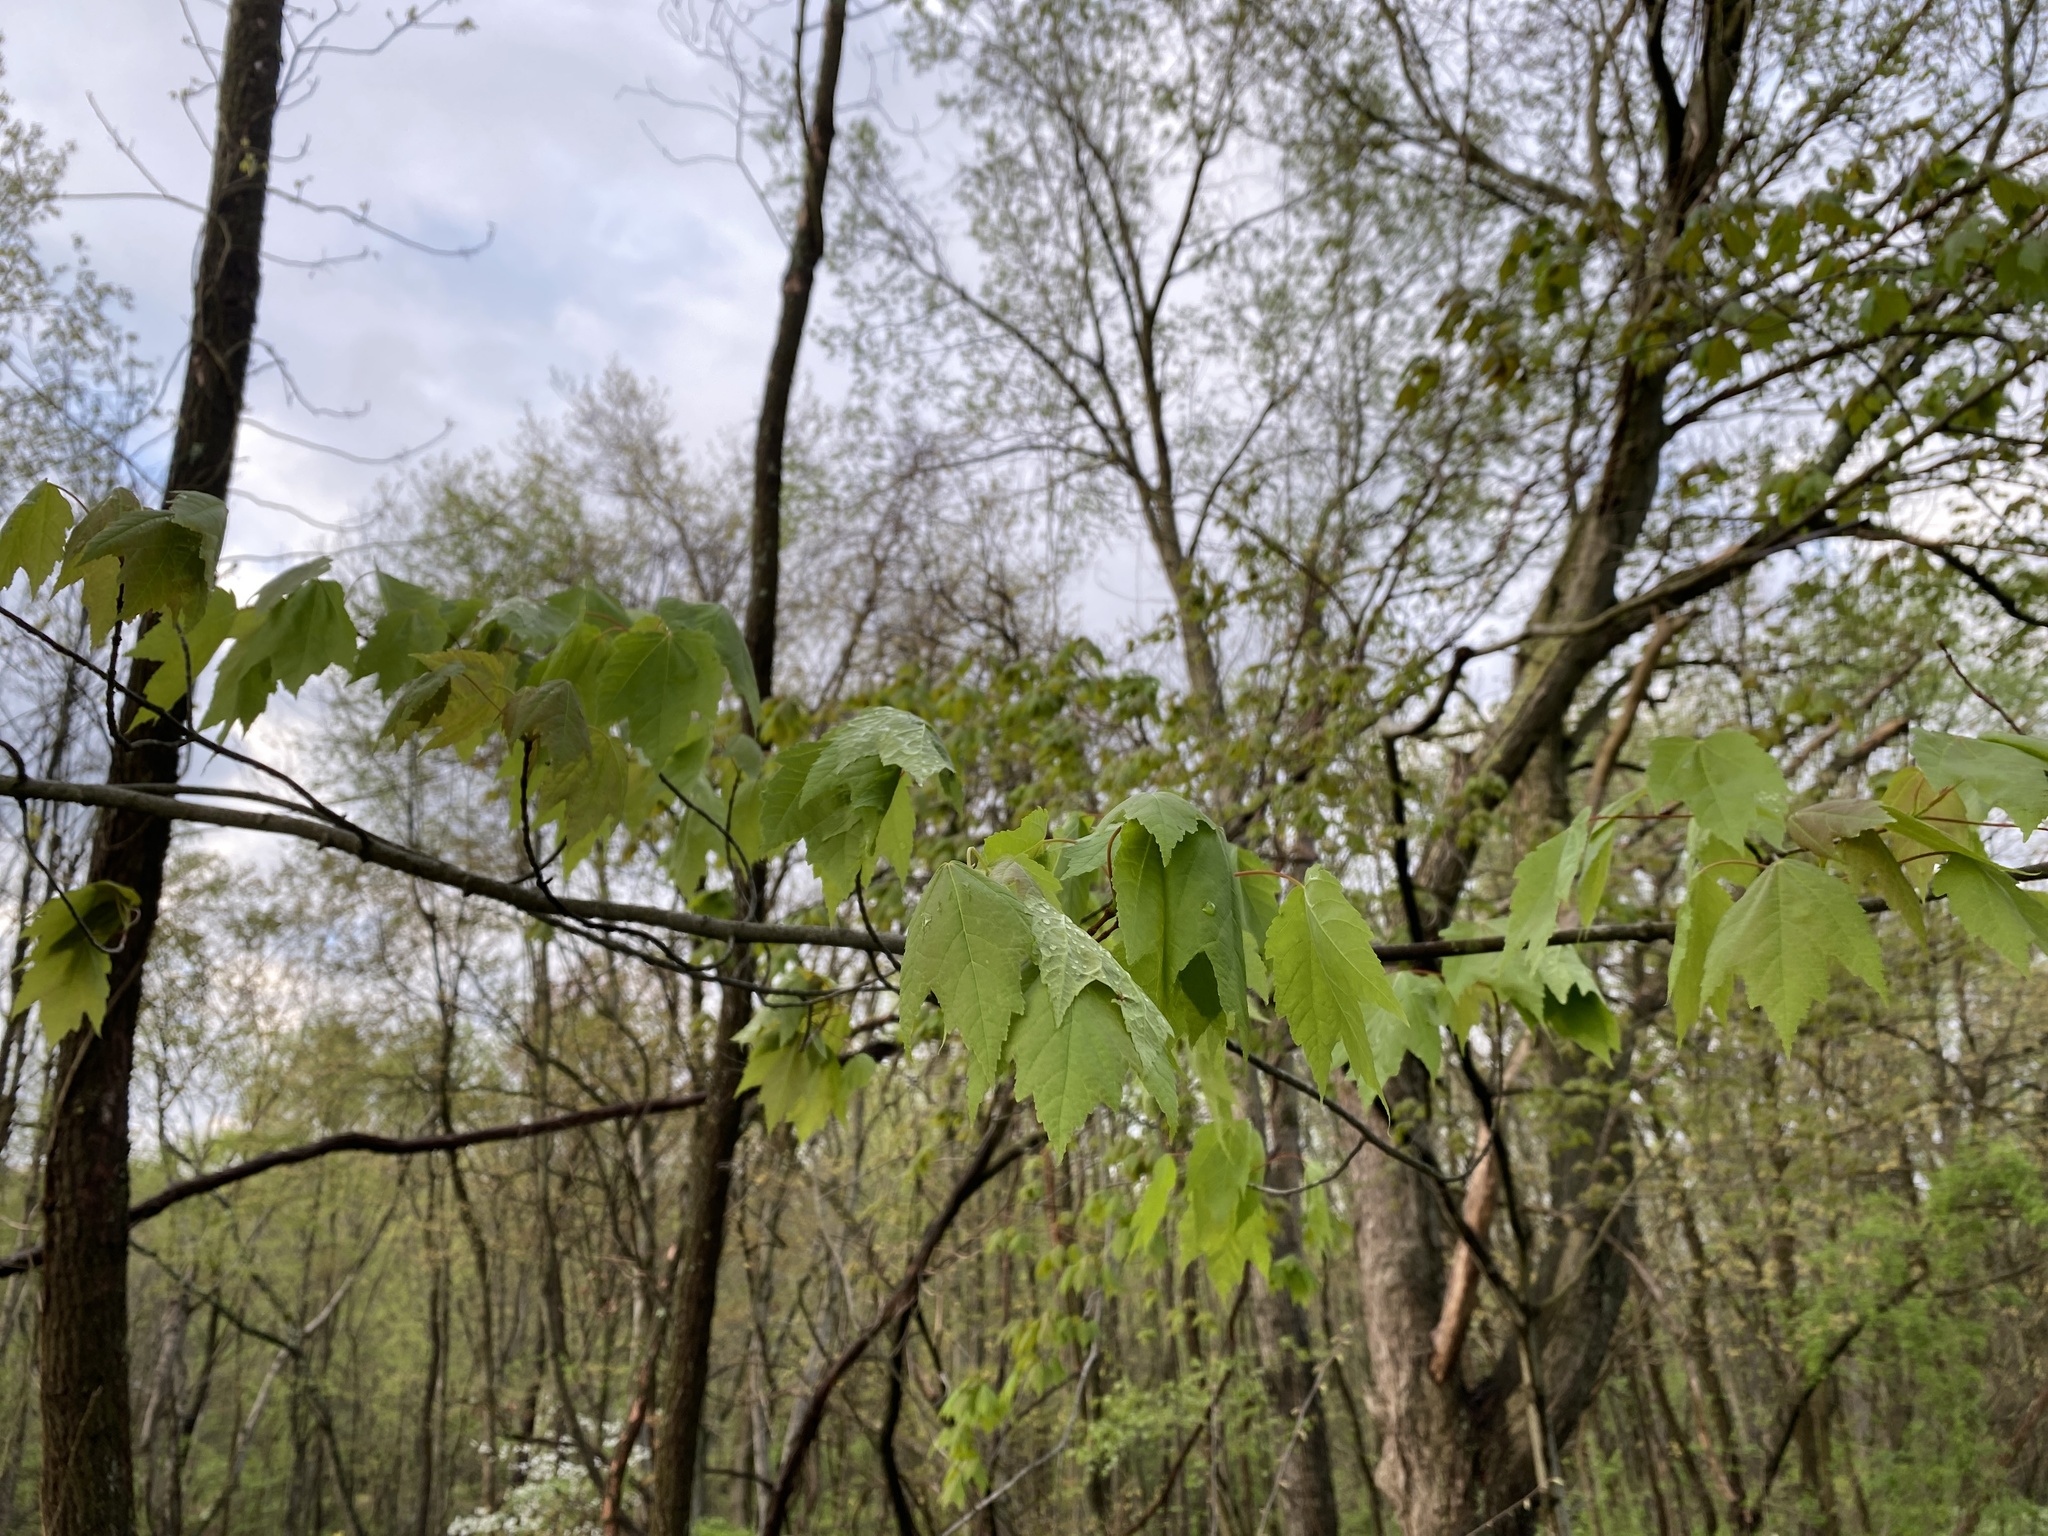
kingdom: Plantae
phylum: Tracheophyta
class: Magnoliopsida
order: Sapindales
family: Sapindaceae
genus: Acer
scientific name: Acer rubrum
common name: Red maple
